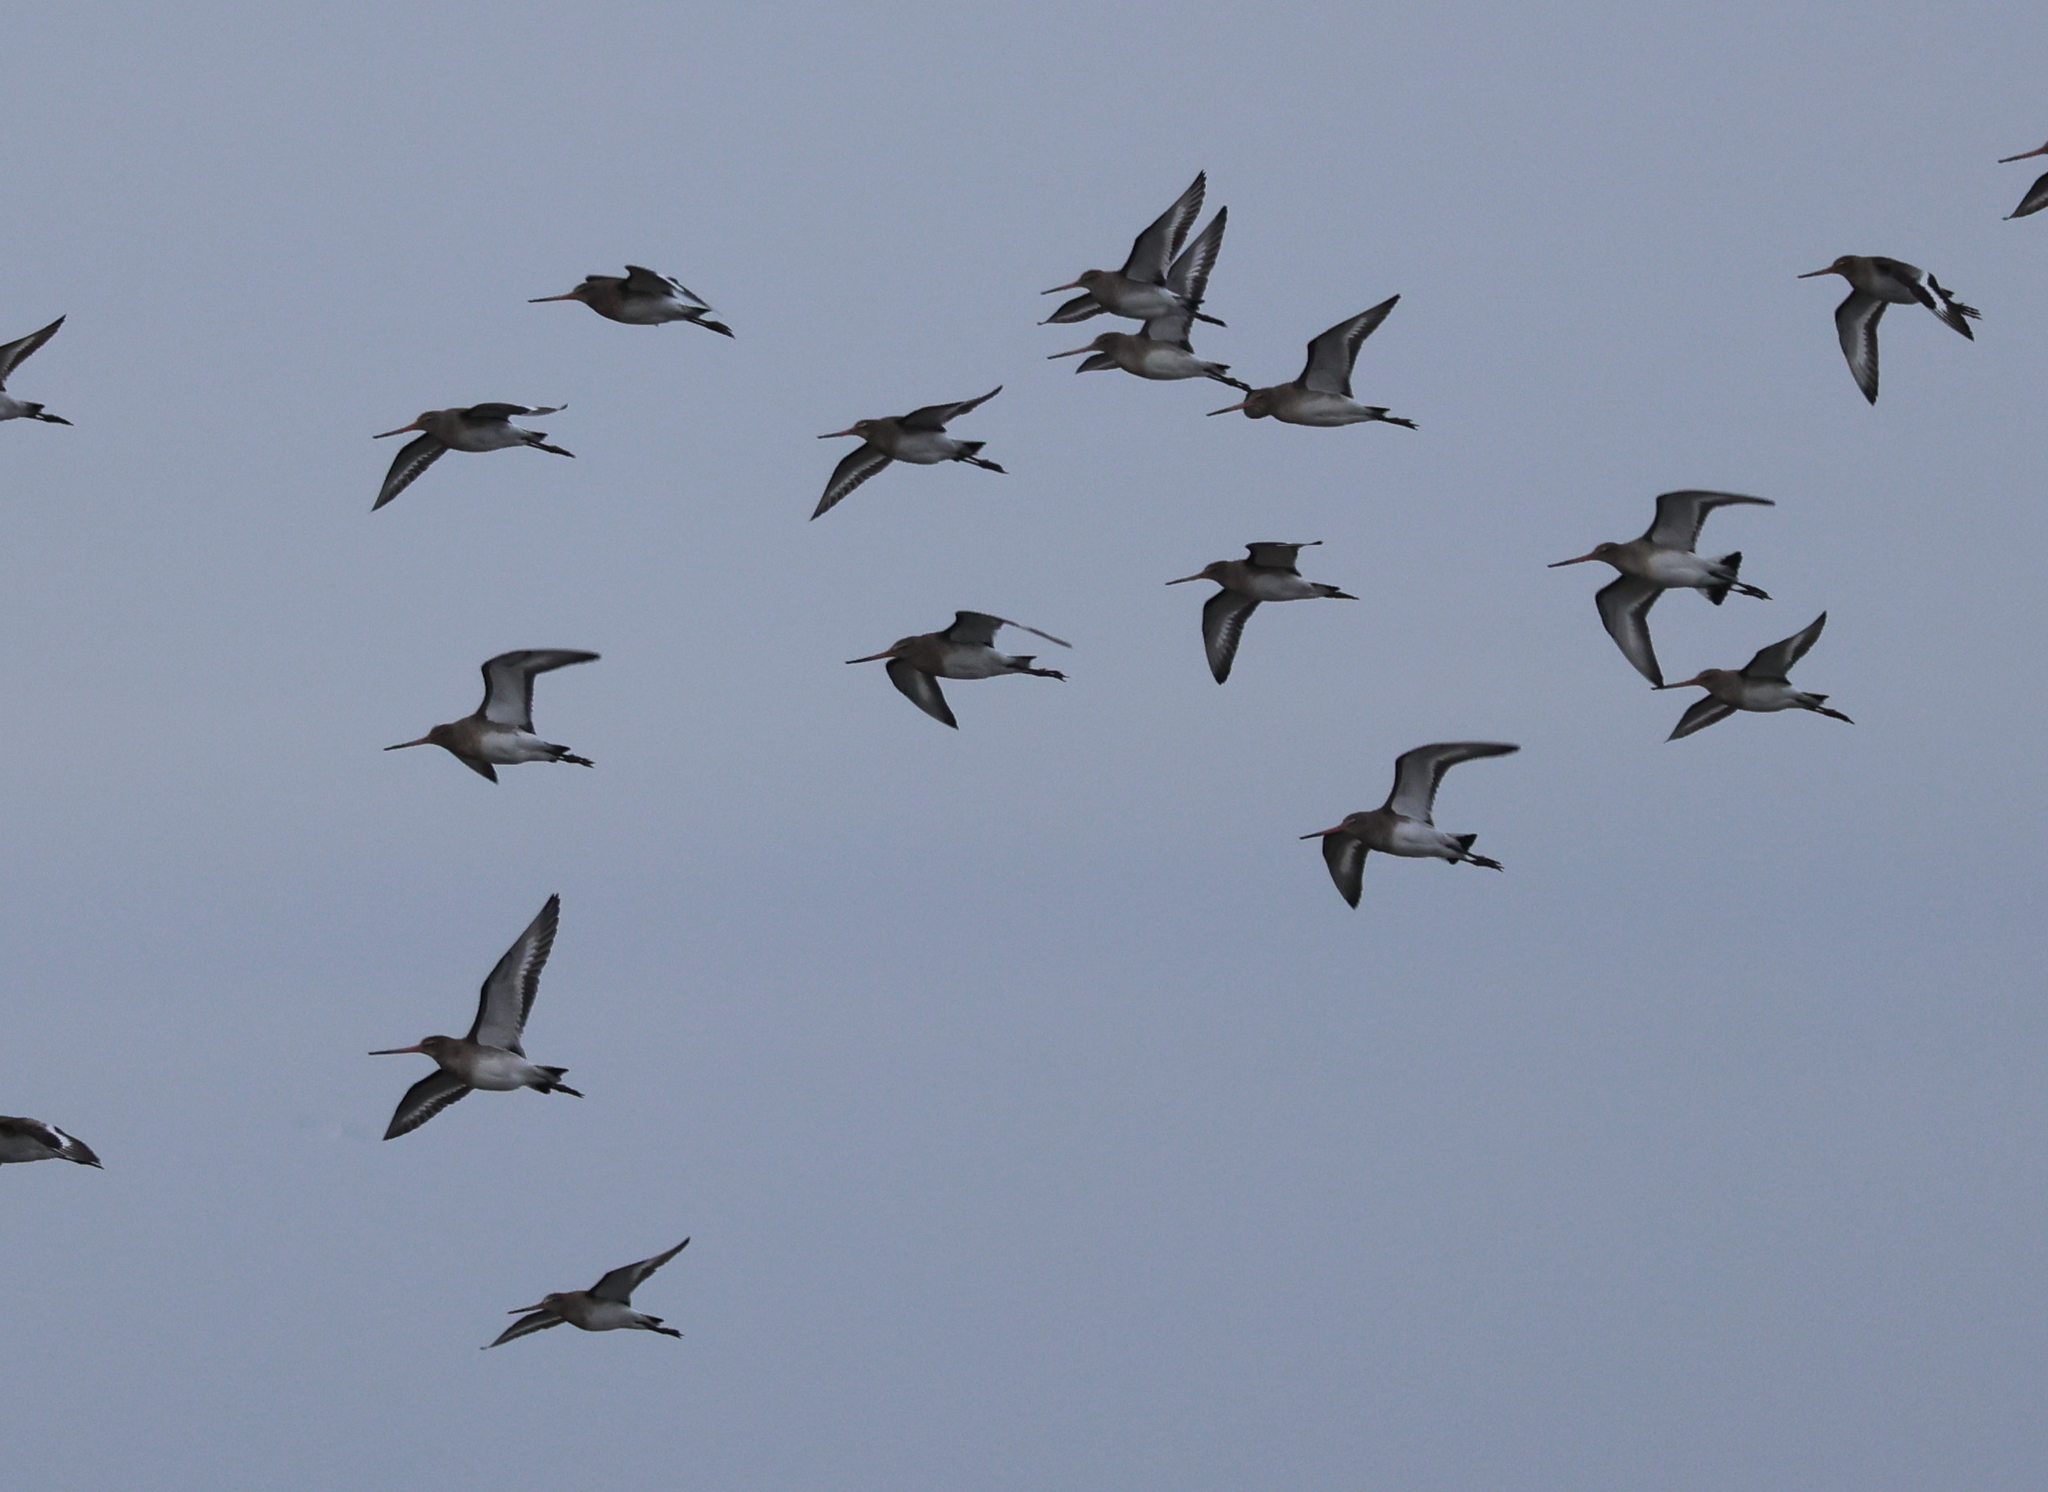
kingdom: Animalia
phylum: Chordata
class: Aves
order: Charadriiformes
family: Scolopacidae
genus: Limosa
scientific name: Limosa limosa
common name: Black-tailed godwit
